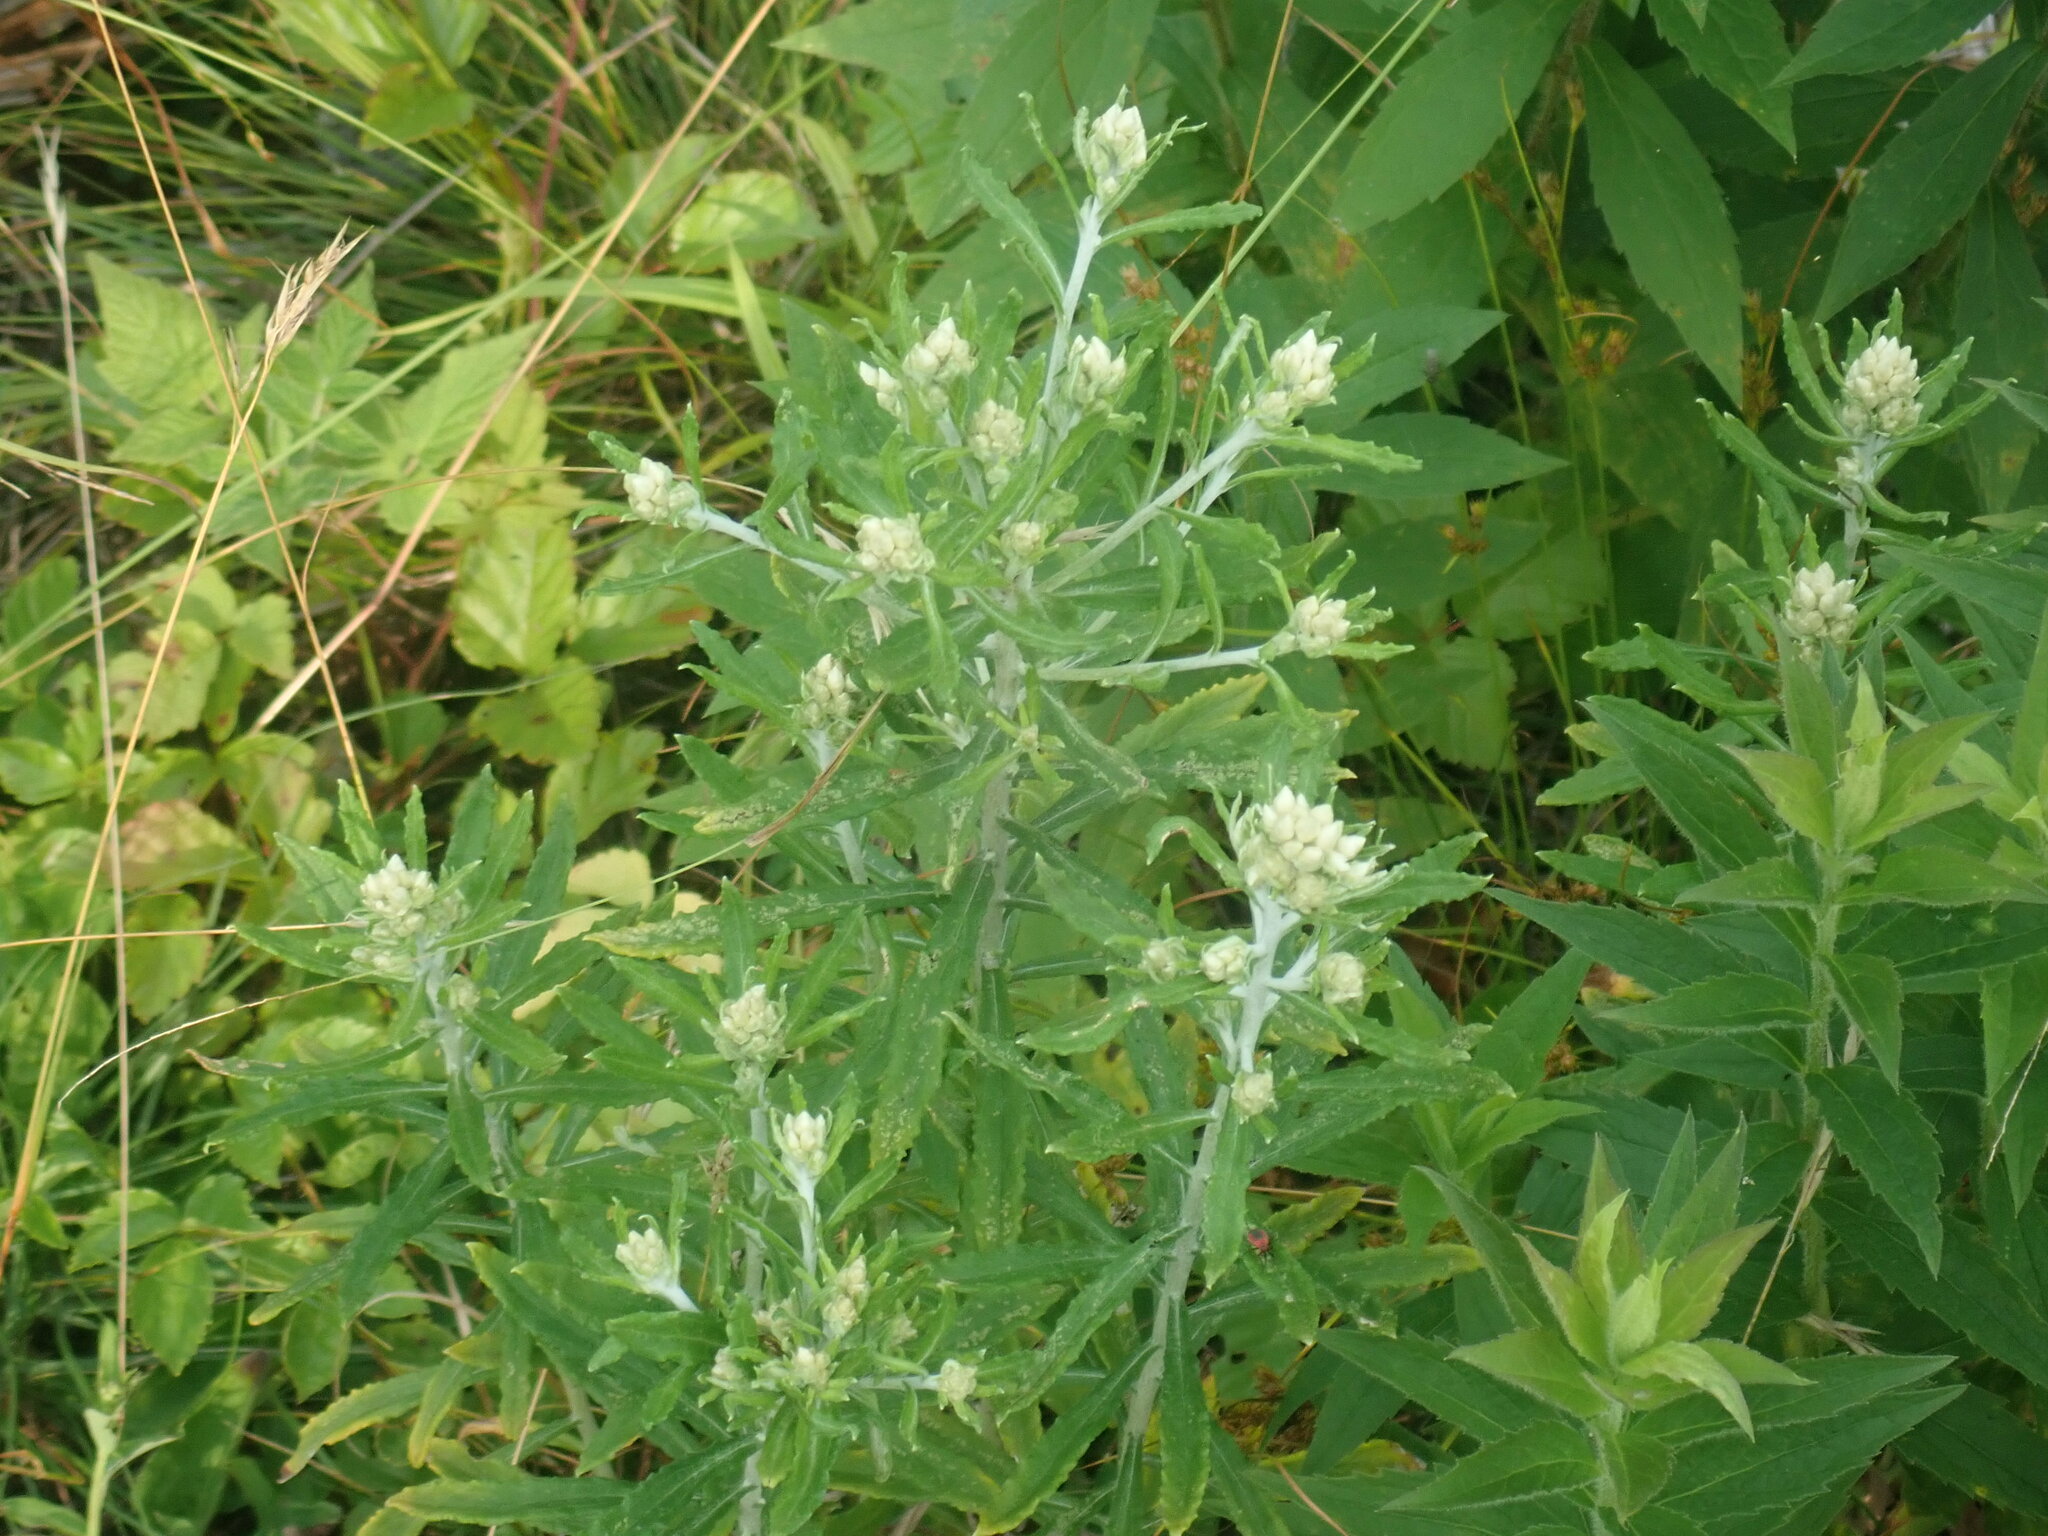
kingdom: Plantae
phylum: Tracheophyta
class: Magnoliopsida
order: Asterales
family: Asteraceae
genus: Pseudognaphalium
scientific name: Pseudognaphalium obtusifolium
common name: Eastern rabbit-tobacco
